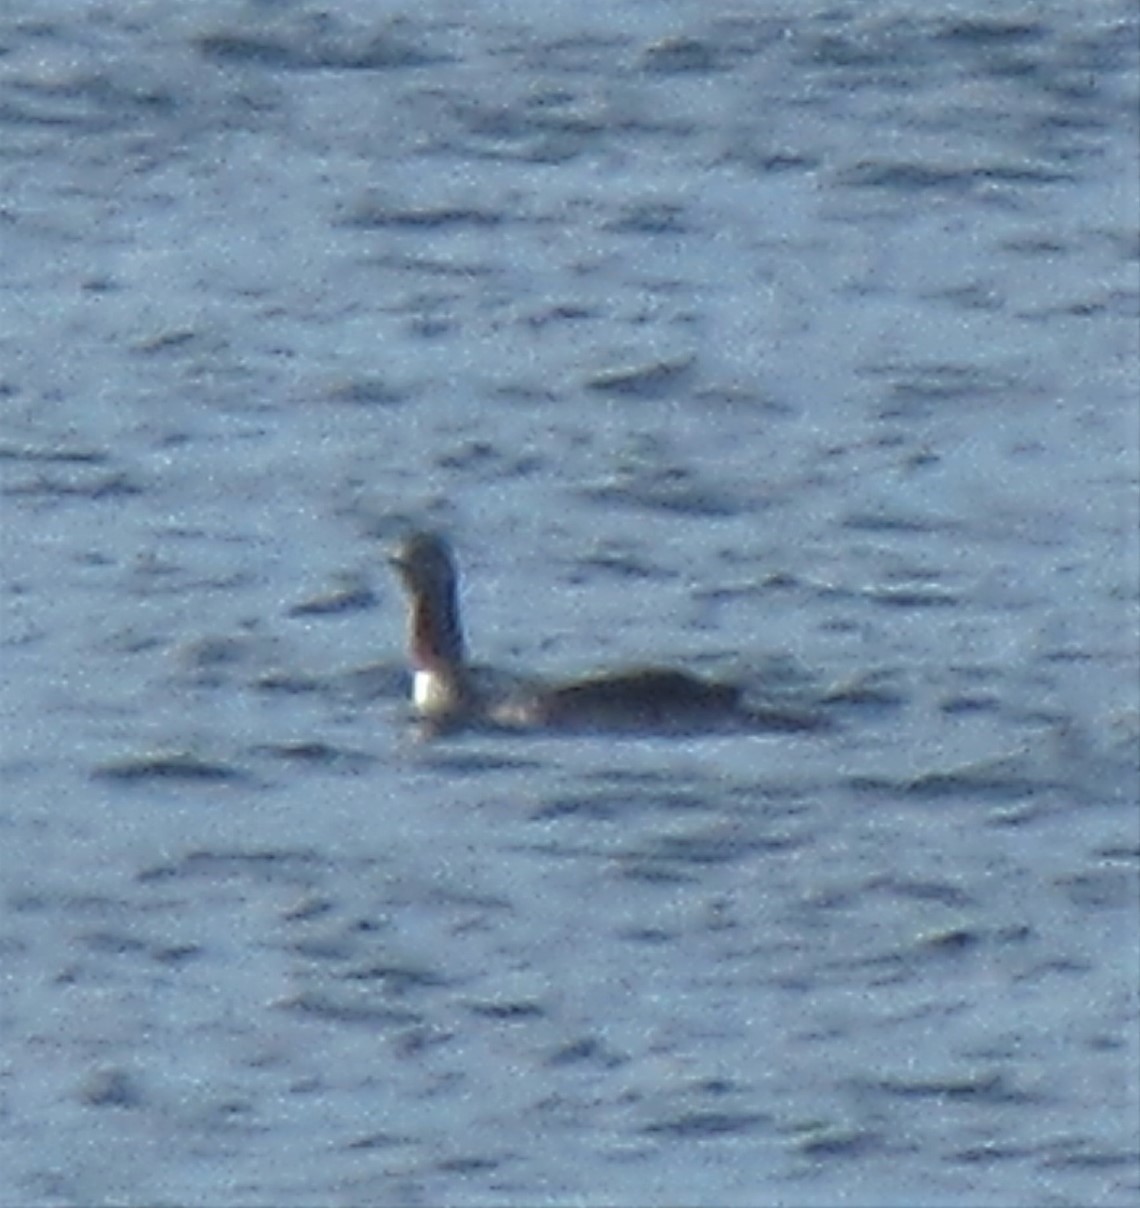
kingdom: Animalia
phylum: Chordata
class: Aves
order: Gaviiformes
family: Gaviidae
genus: Gavia
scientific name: Gavia stellata
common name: Red-throated loon
